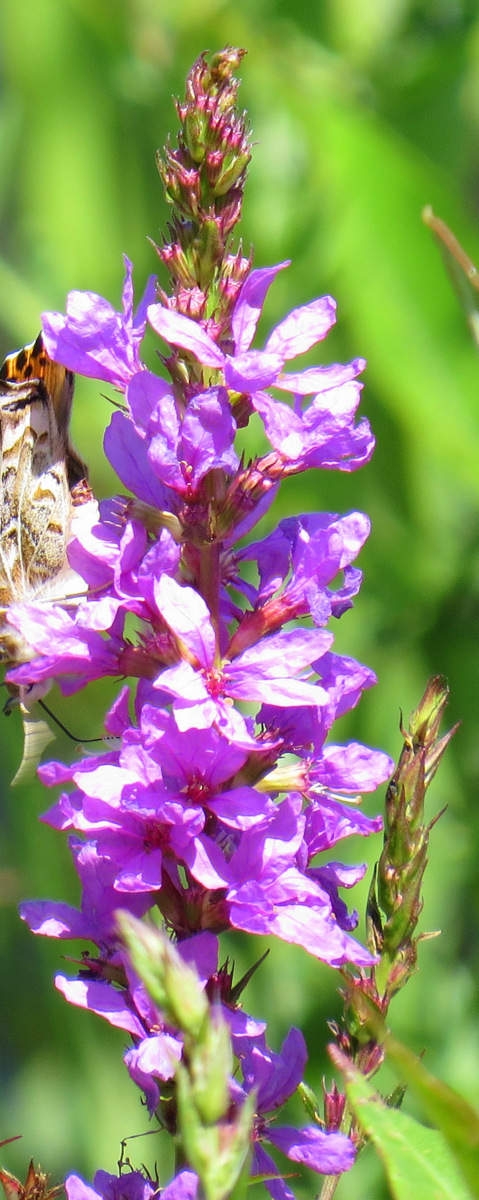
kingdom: Plantae
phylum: Tracheophyta
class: Magnoliopsida
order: Myrtales
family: Lythraceae
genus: Lythrum
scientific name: Lythrum salicaria
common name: Purple loosestrife
